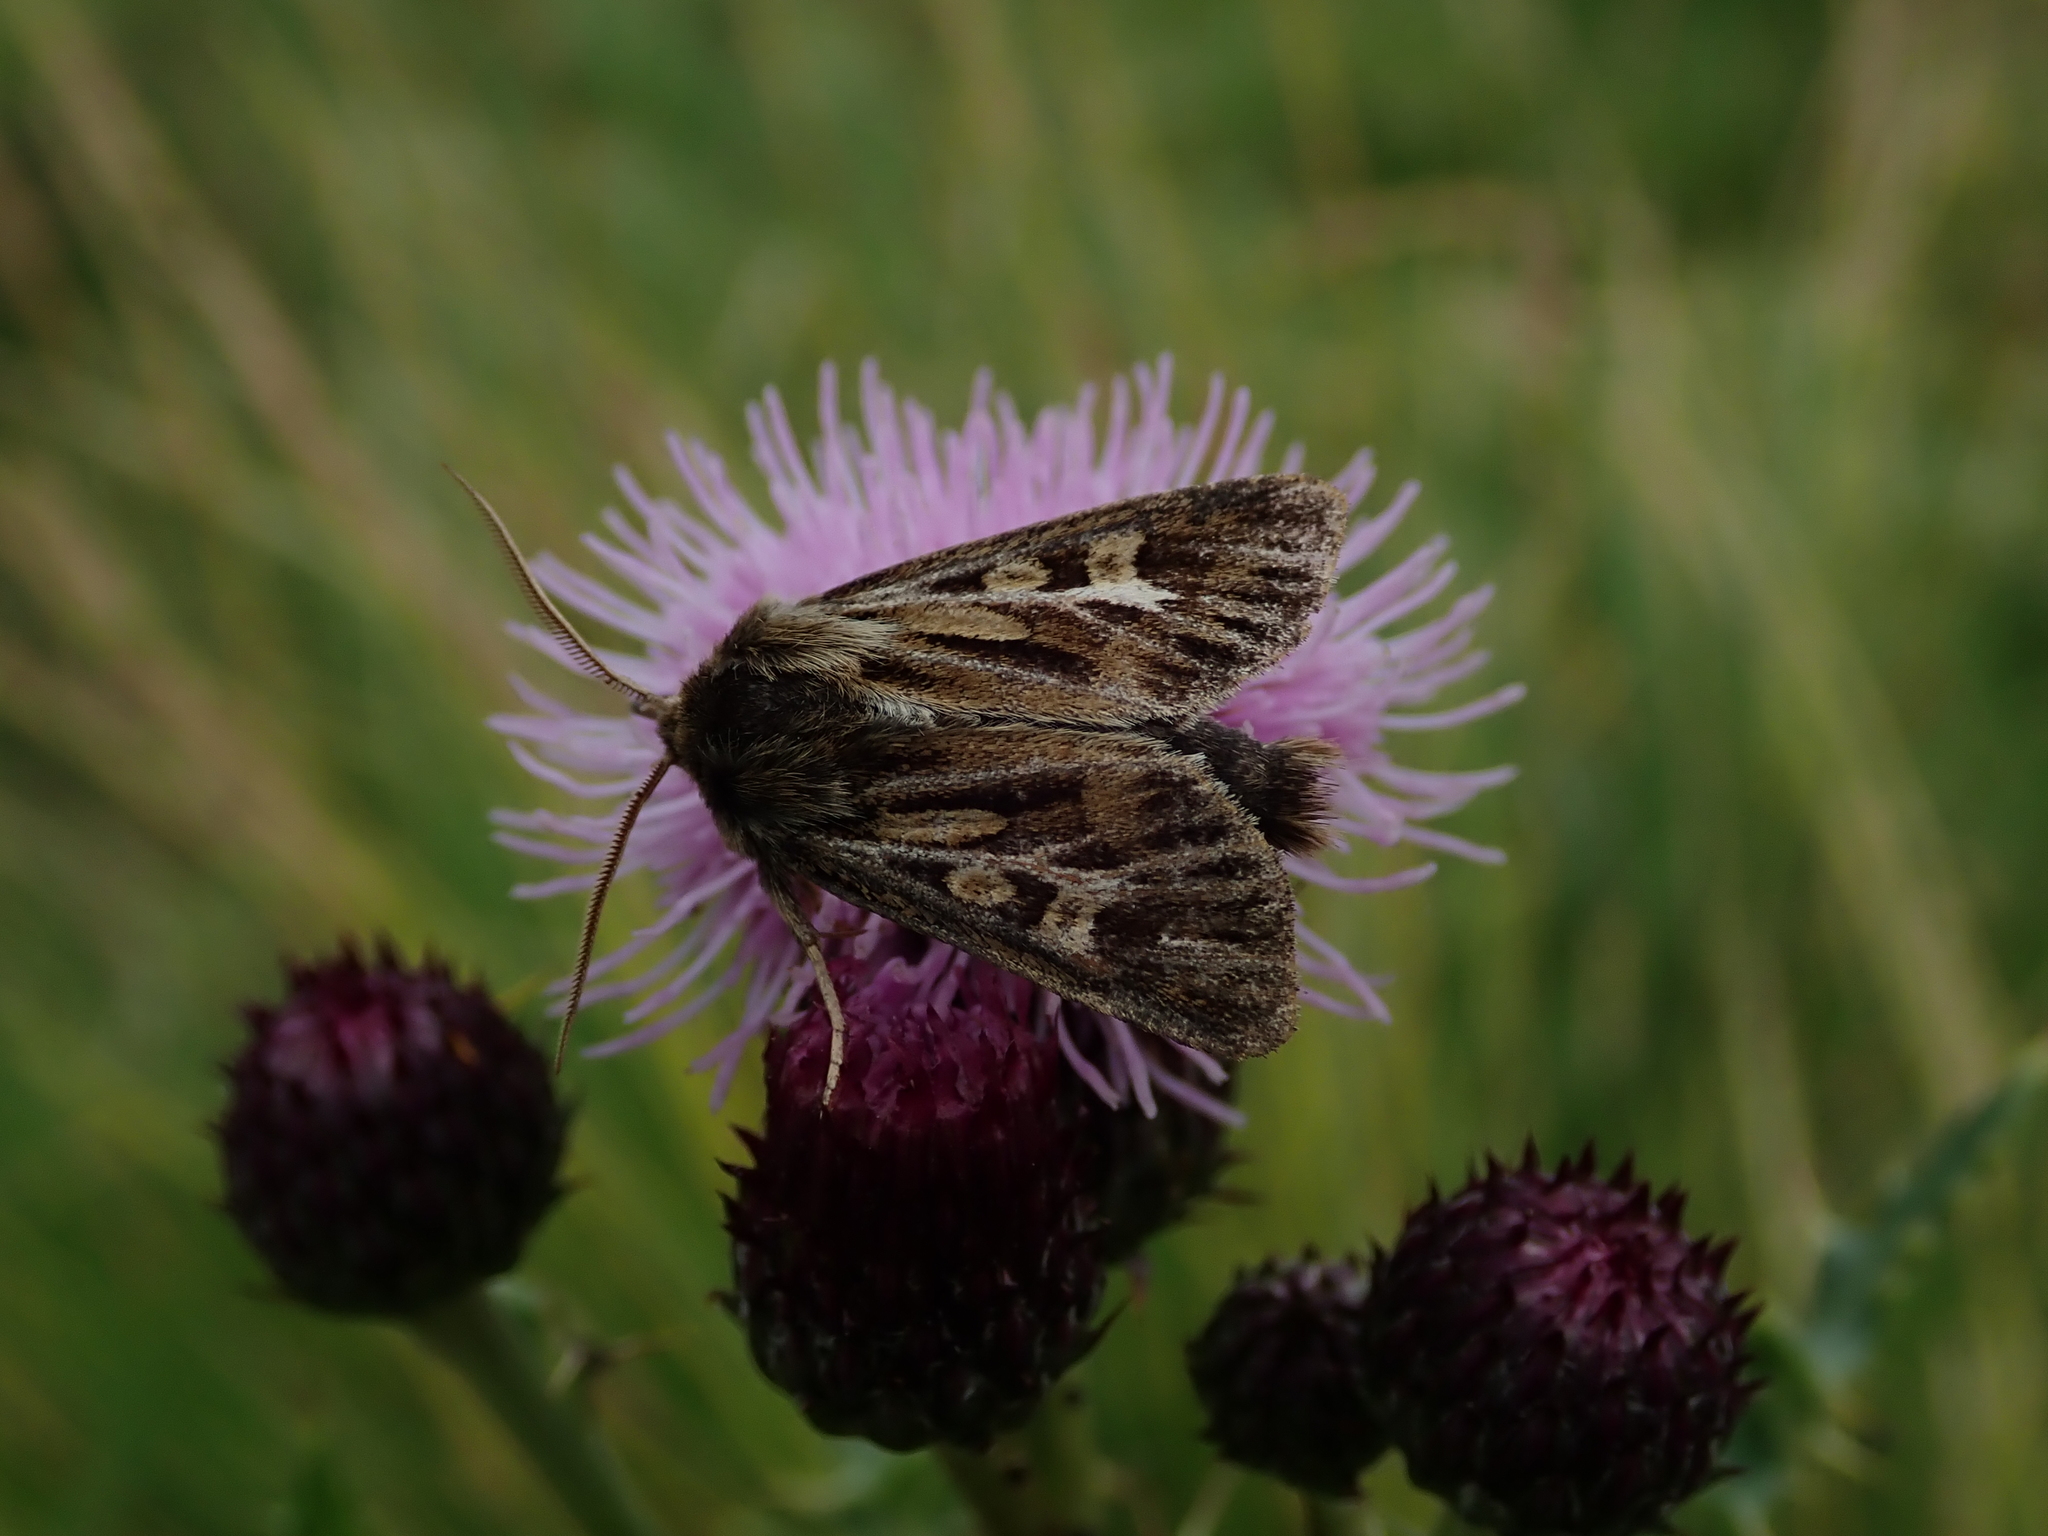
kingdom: Animalia
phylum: Arthropoda
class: Insecta
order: Lepidoptera
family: Noctuidae
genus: Cerapteryx
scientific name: Cerapteryx graminis
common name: Antler moth
